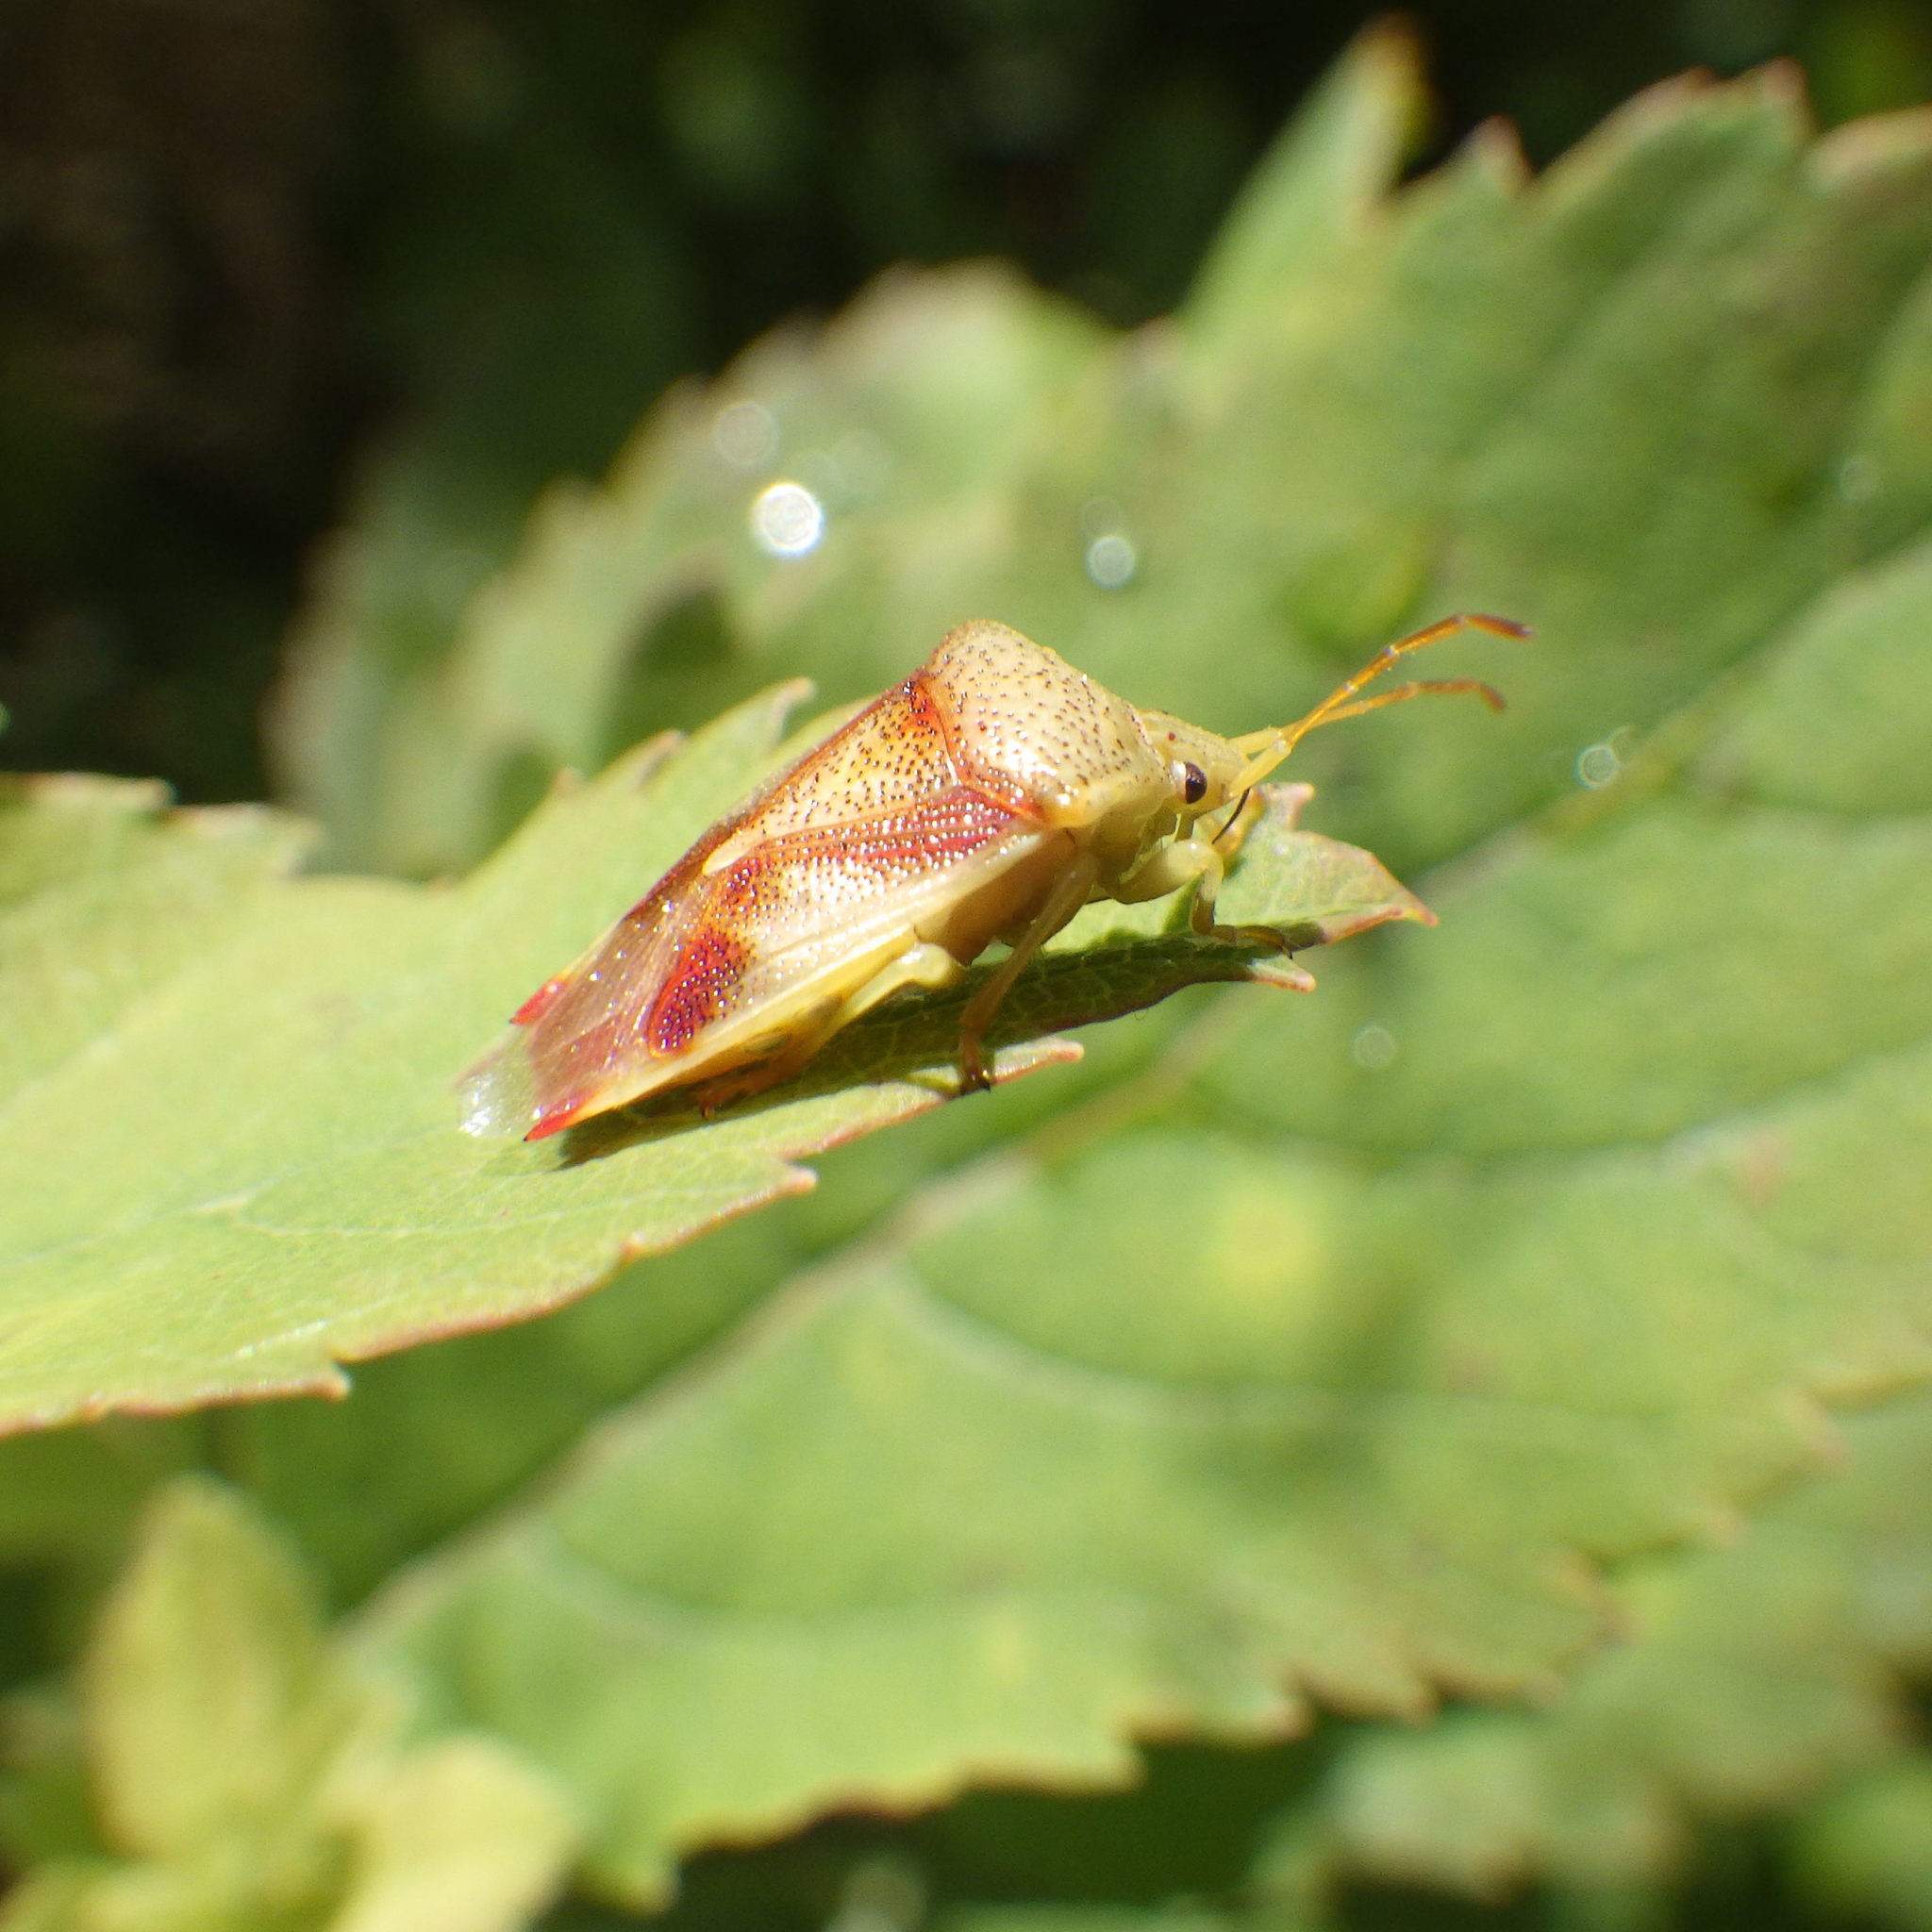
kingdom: Animalia
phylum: Arthropoda
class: Insecta
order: Hemiptera
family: Acanthosomatidae
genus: Elasmostethus
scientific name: Elasmostethus cruciatus
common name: Red-cross shield bug
